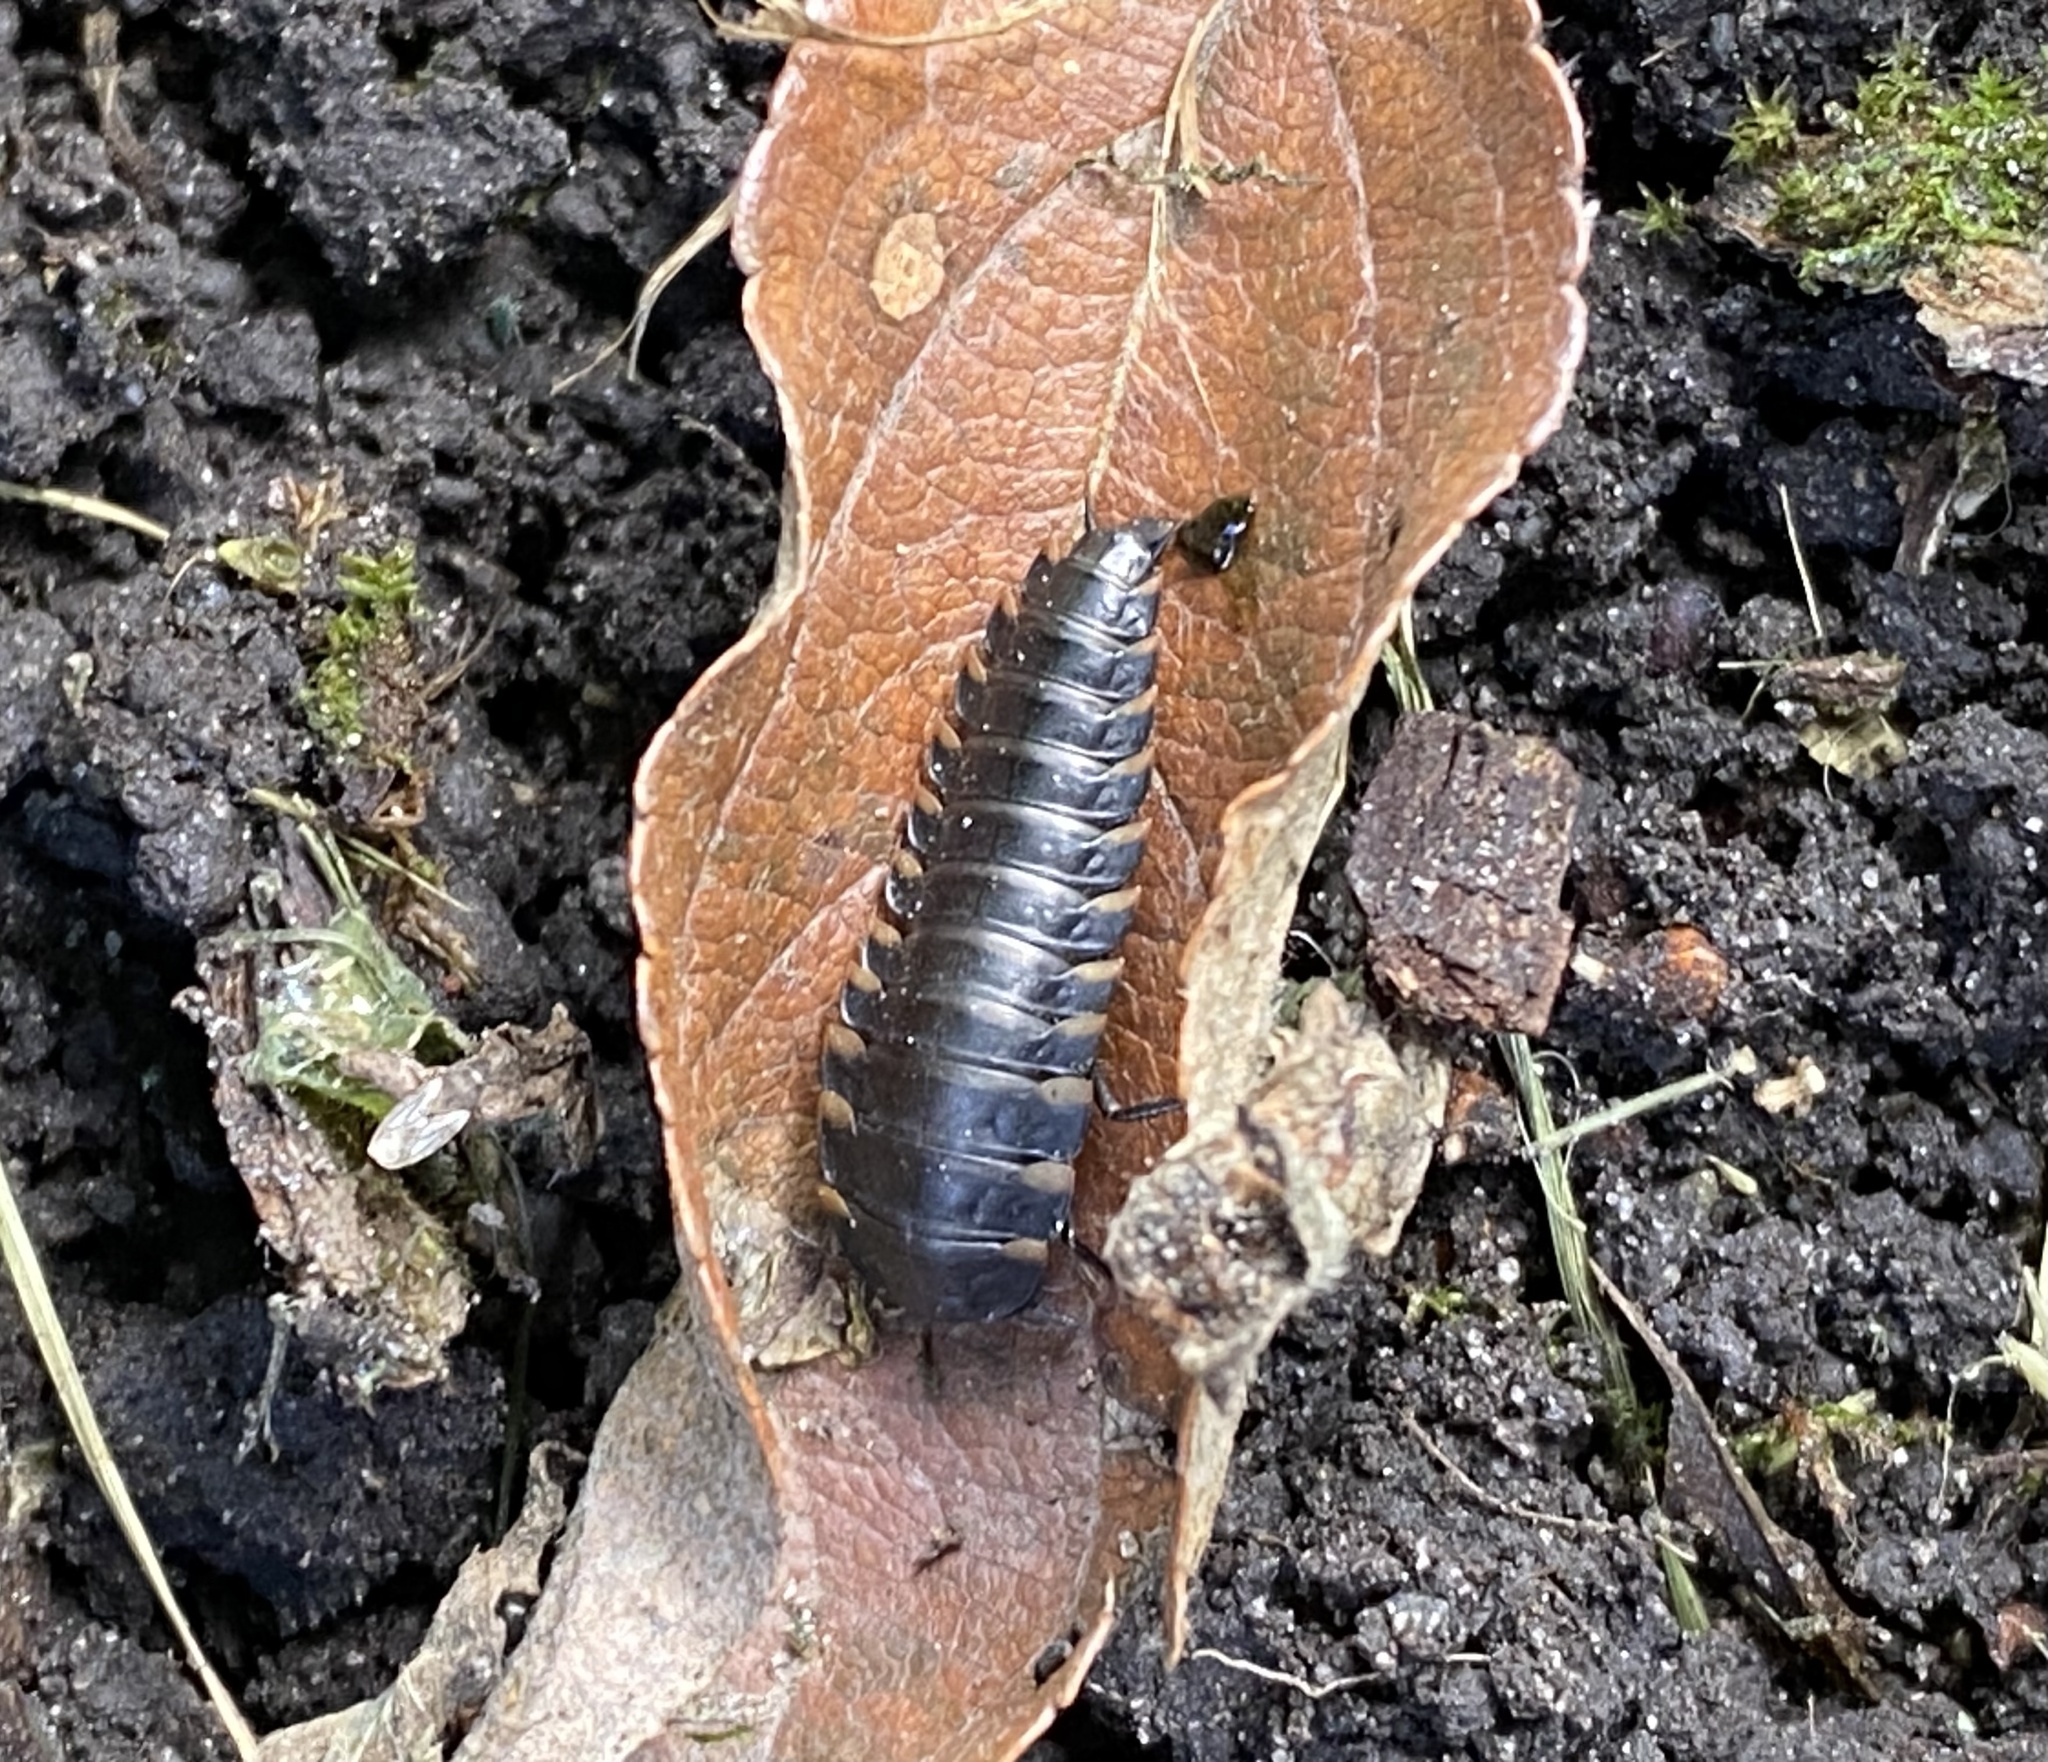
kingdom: Animalia
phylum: Arthropoda
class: Insecta
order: Coleoptera
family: Staphylinidae
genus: Silpha
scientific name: Silpha tristis
